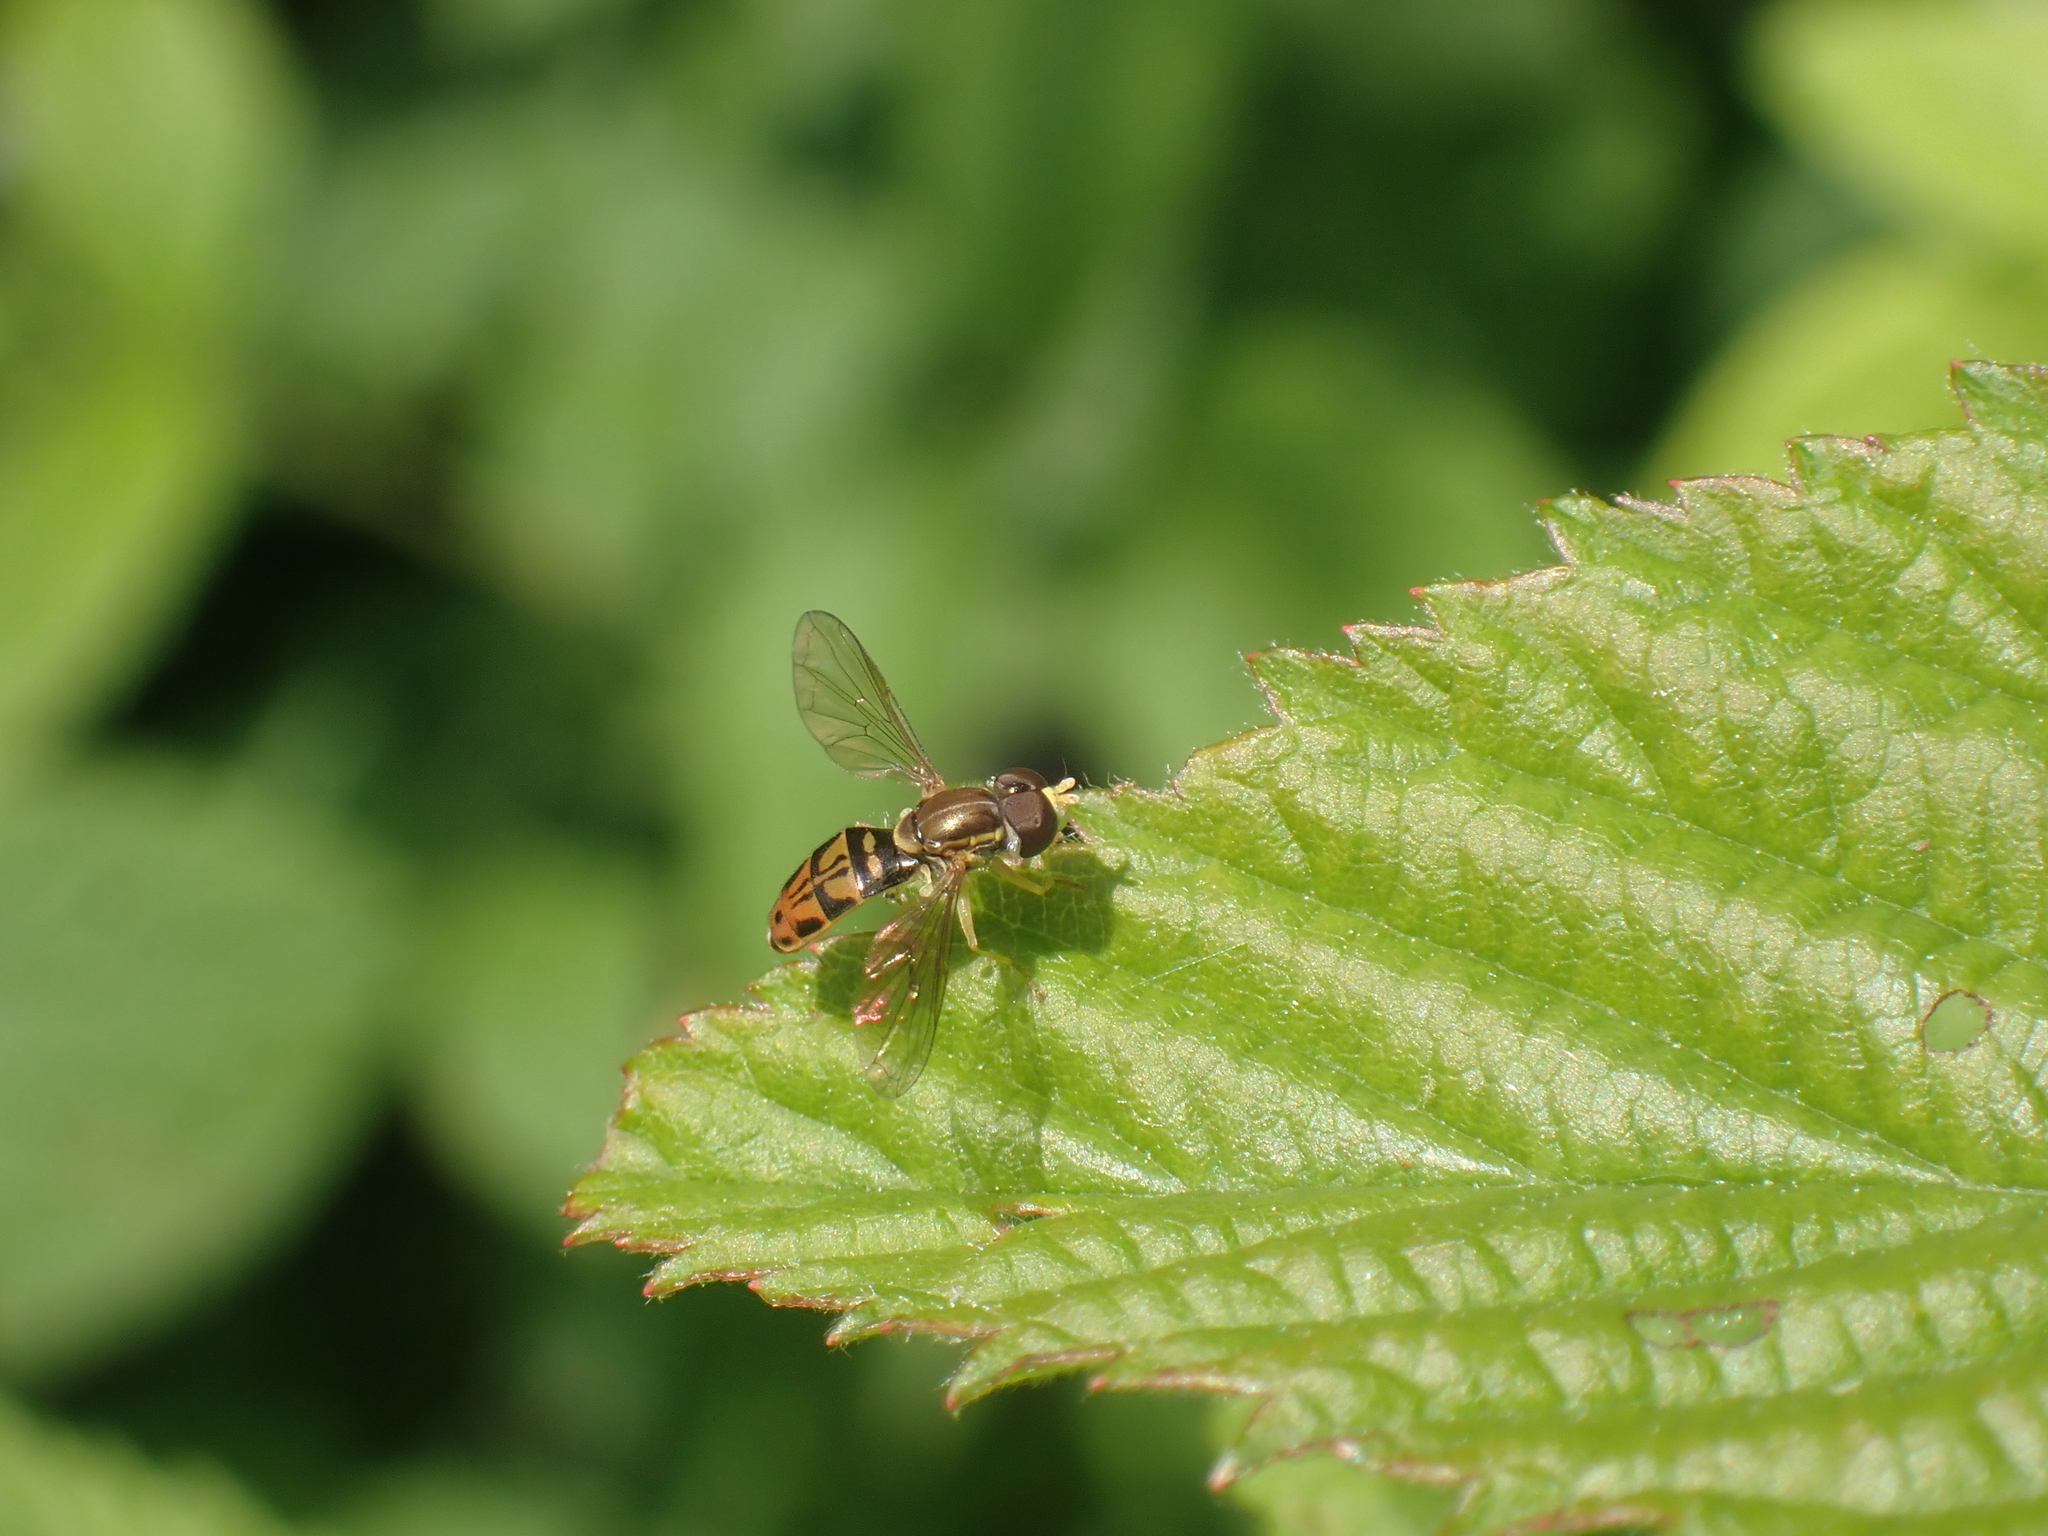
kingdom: Animalia
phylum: Arthropoda
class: Insecta
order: Diptera
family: Syrphidae
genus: Toxomerus
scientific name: Toxomerus marginatus
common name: Syrphid fly
